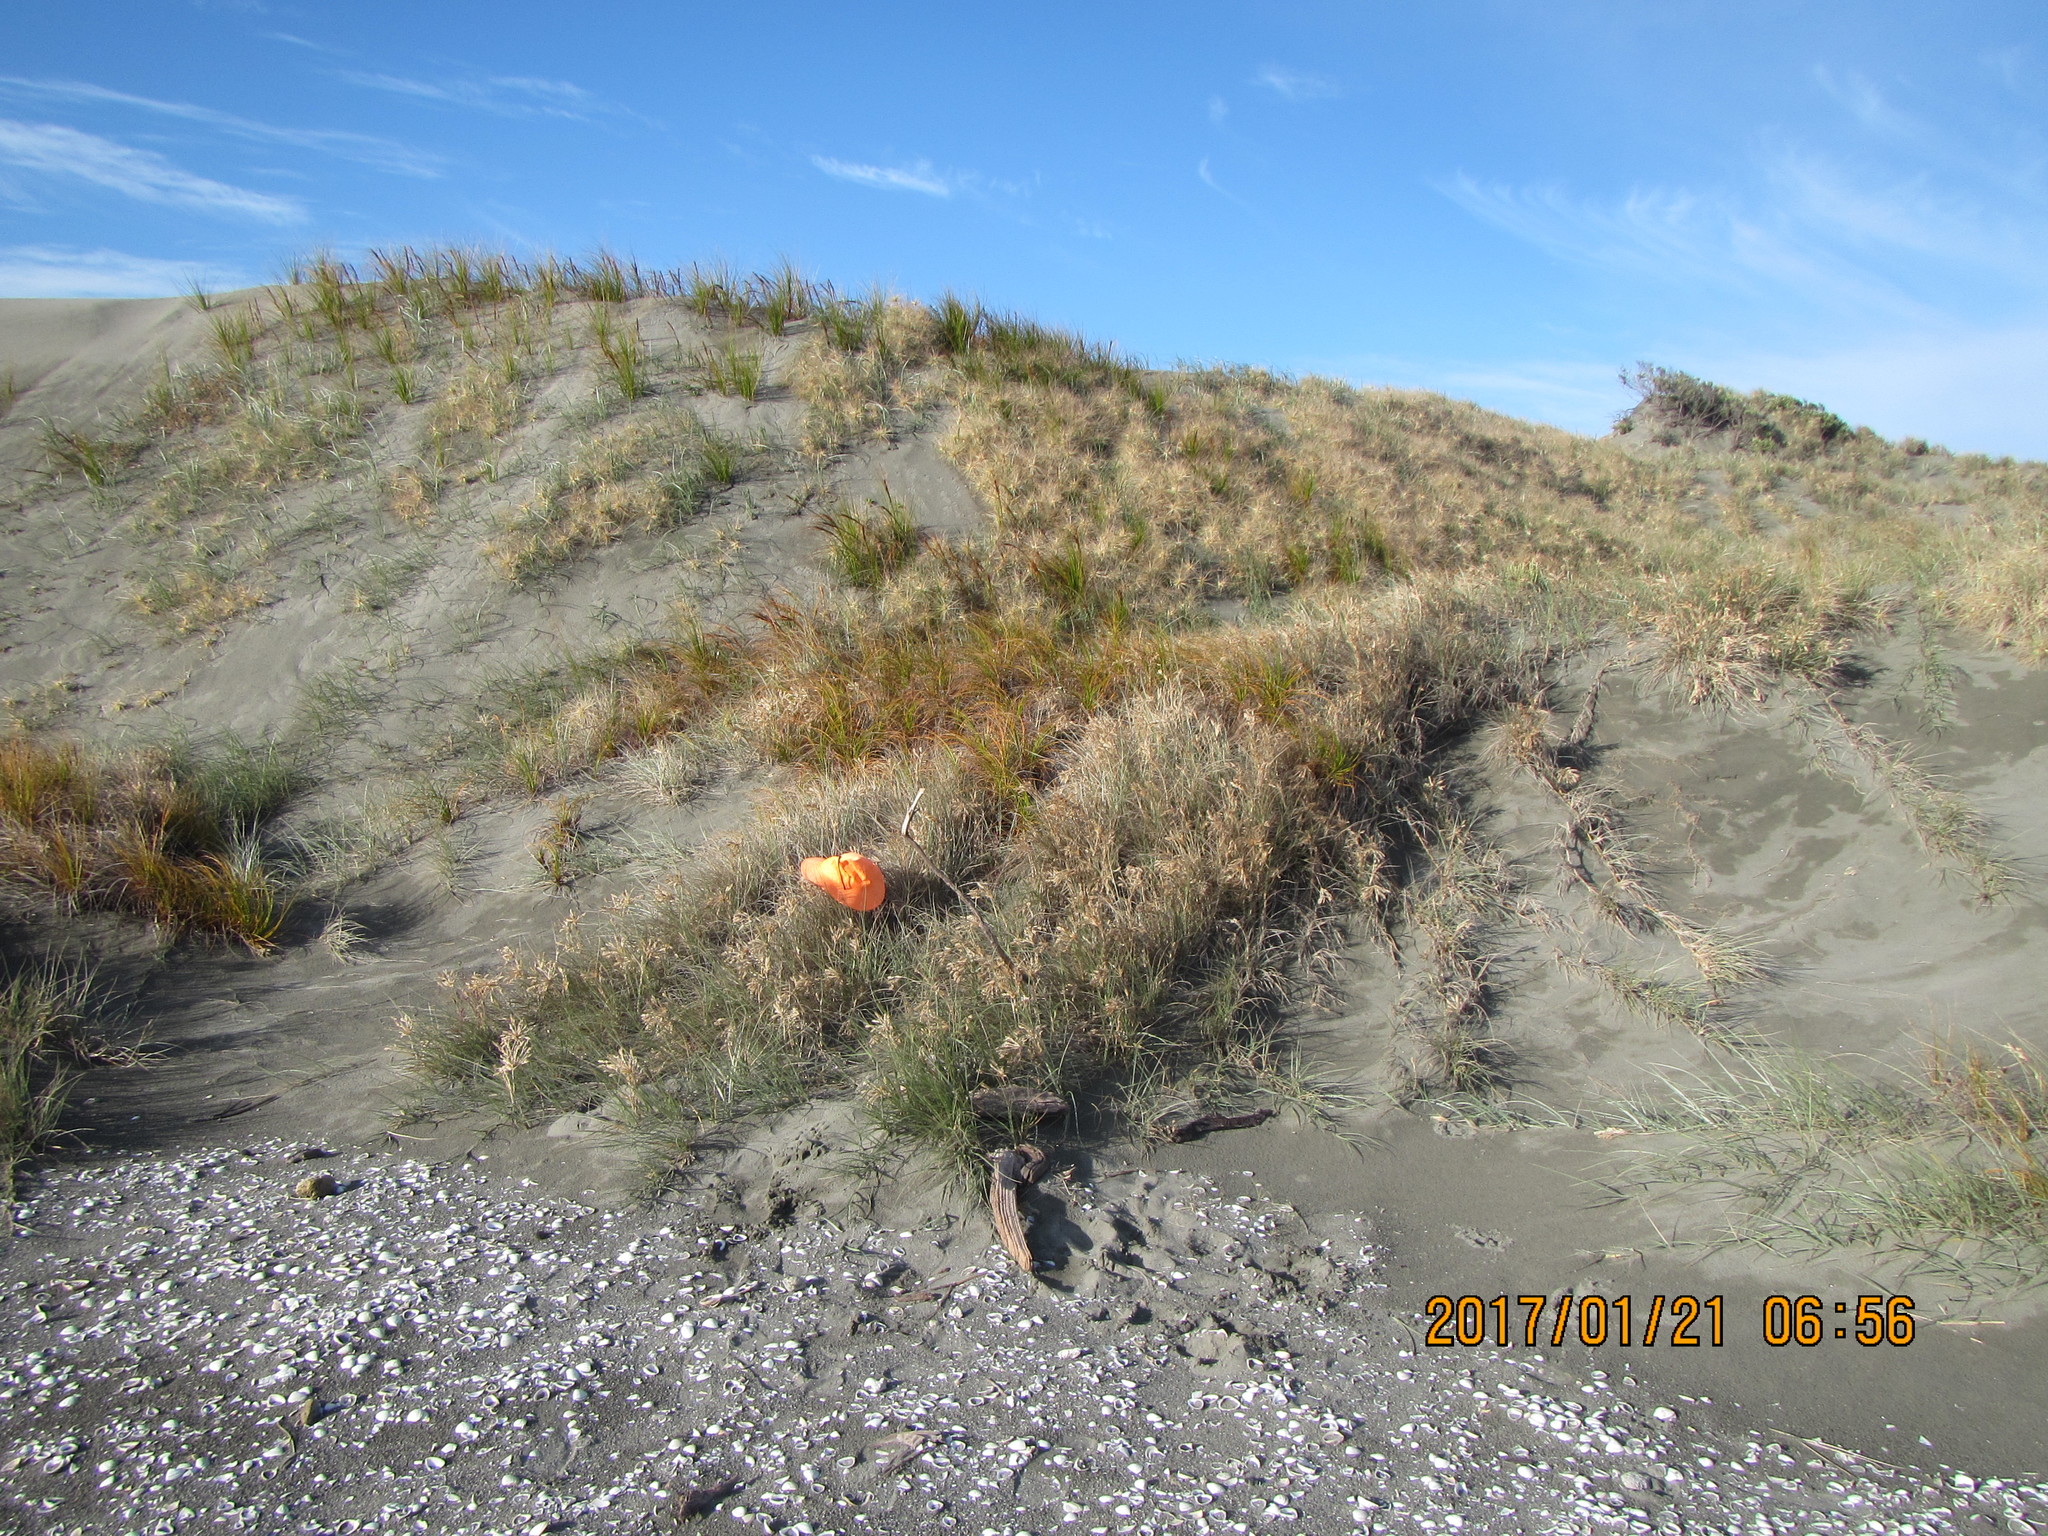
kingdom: Animalia
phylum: Chordata
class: Squamata
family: Scincidae
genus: Oligosoma
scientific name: Oligosoma polychroma
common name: Common new zealand skink
